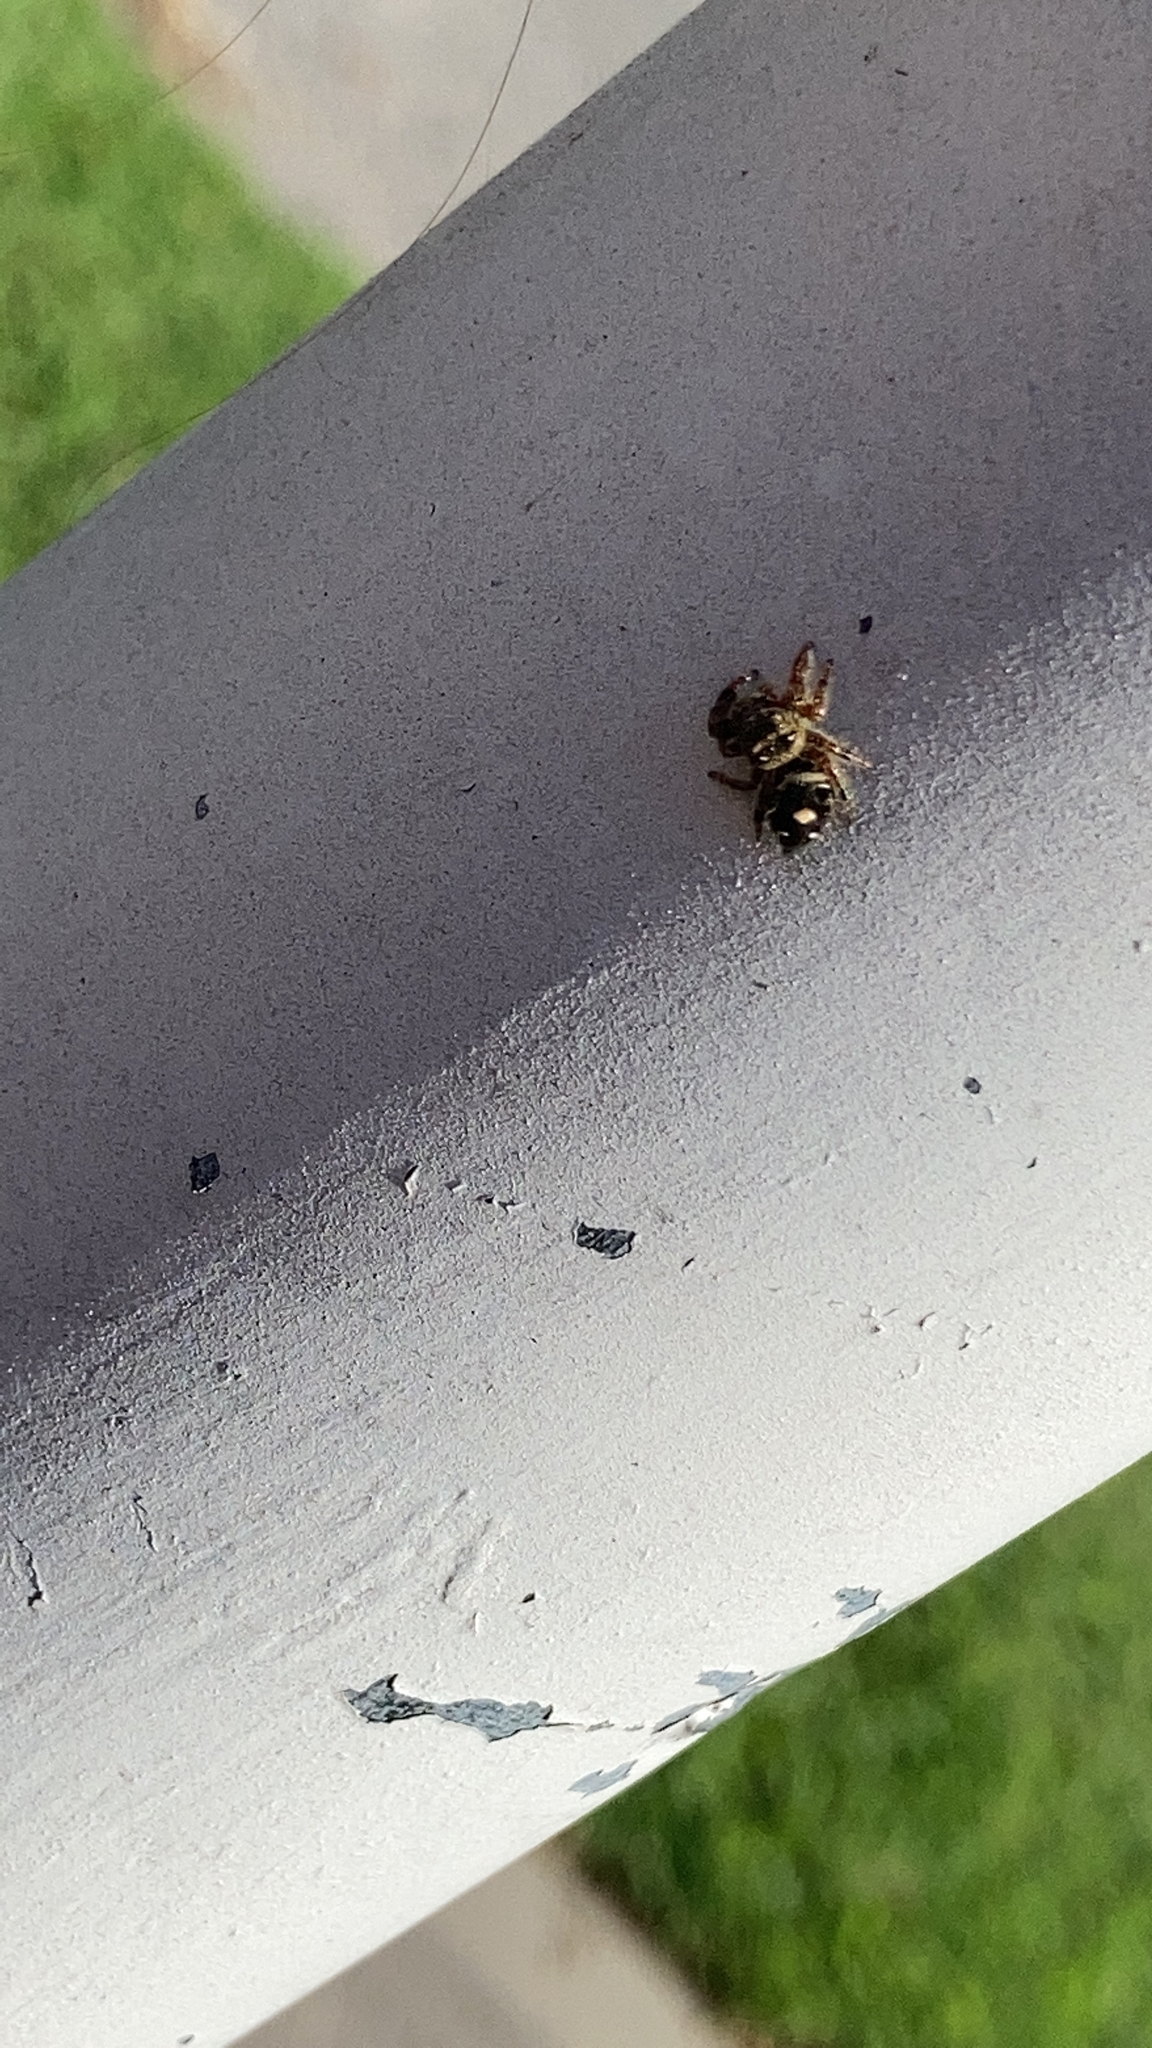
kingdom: Animalia
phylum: Arthropoda
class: Arachnida
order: Araneae
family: Salticidae
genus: Paraphidippus
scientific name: Paraphidippus aurantius
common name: Jumping spiders
